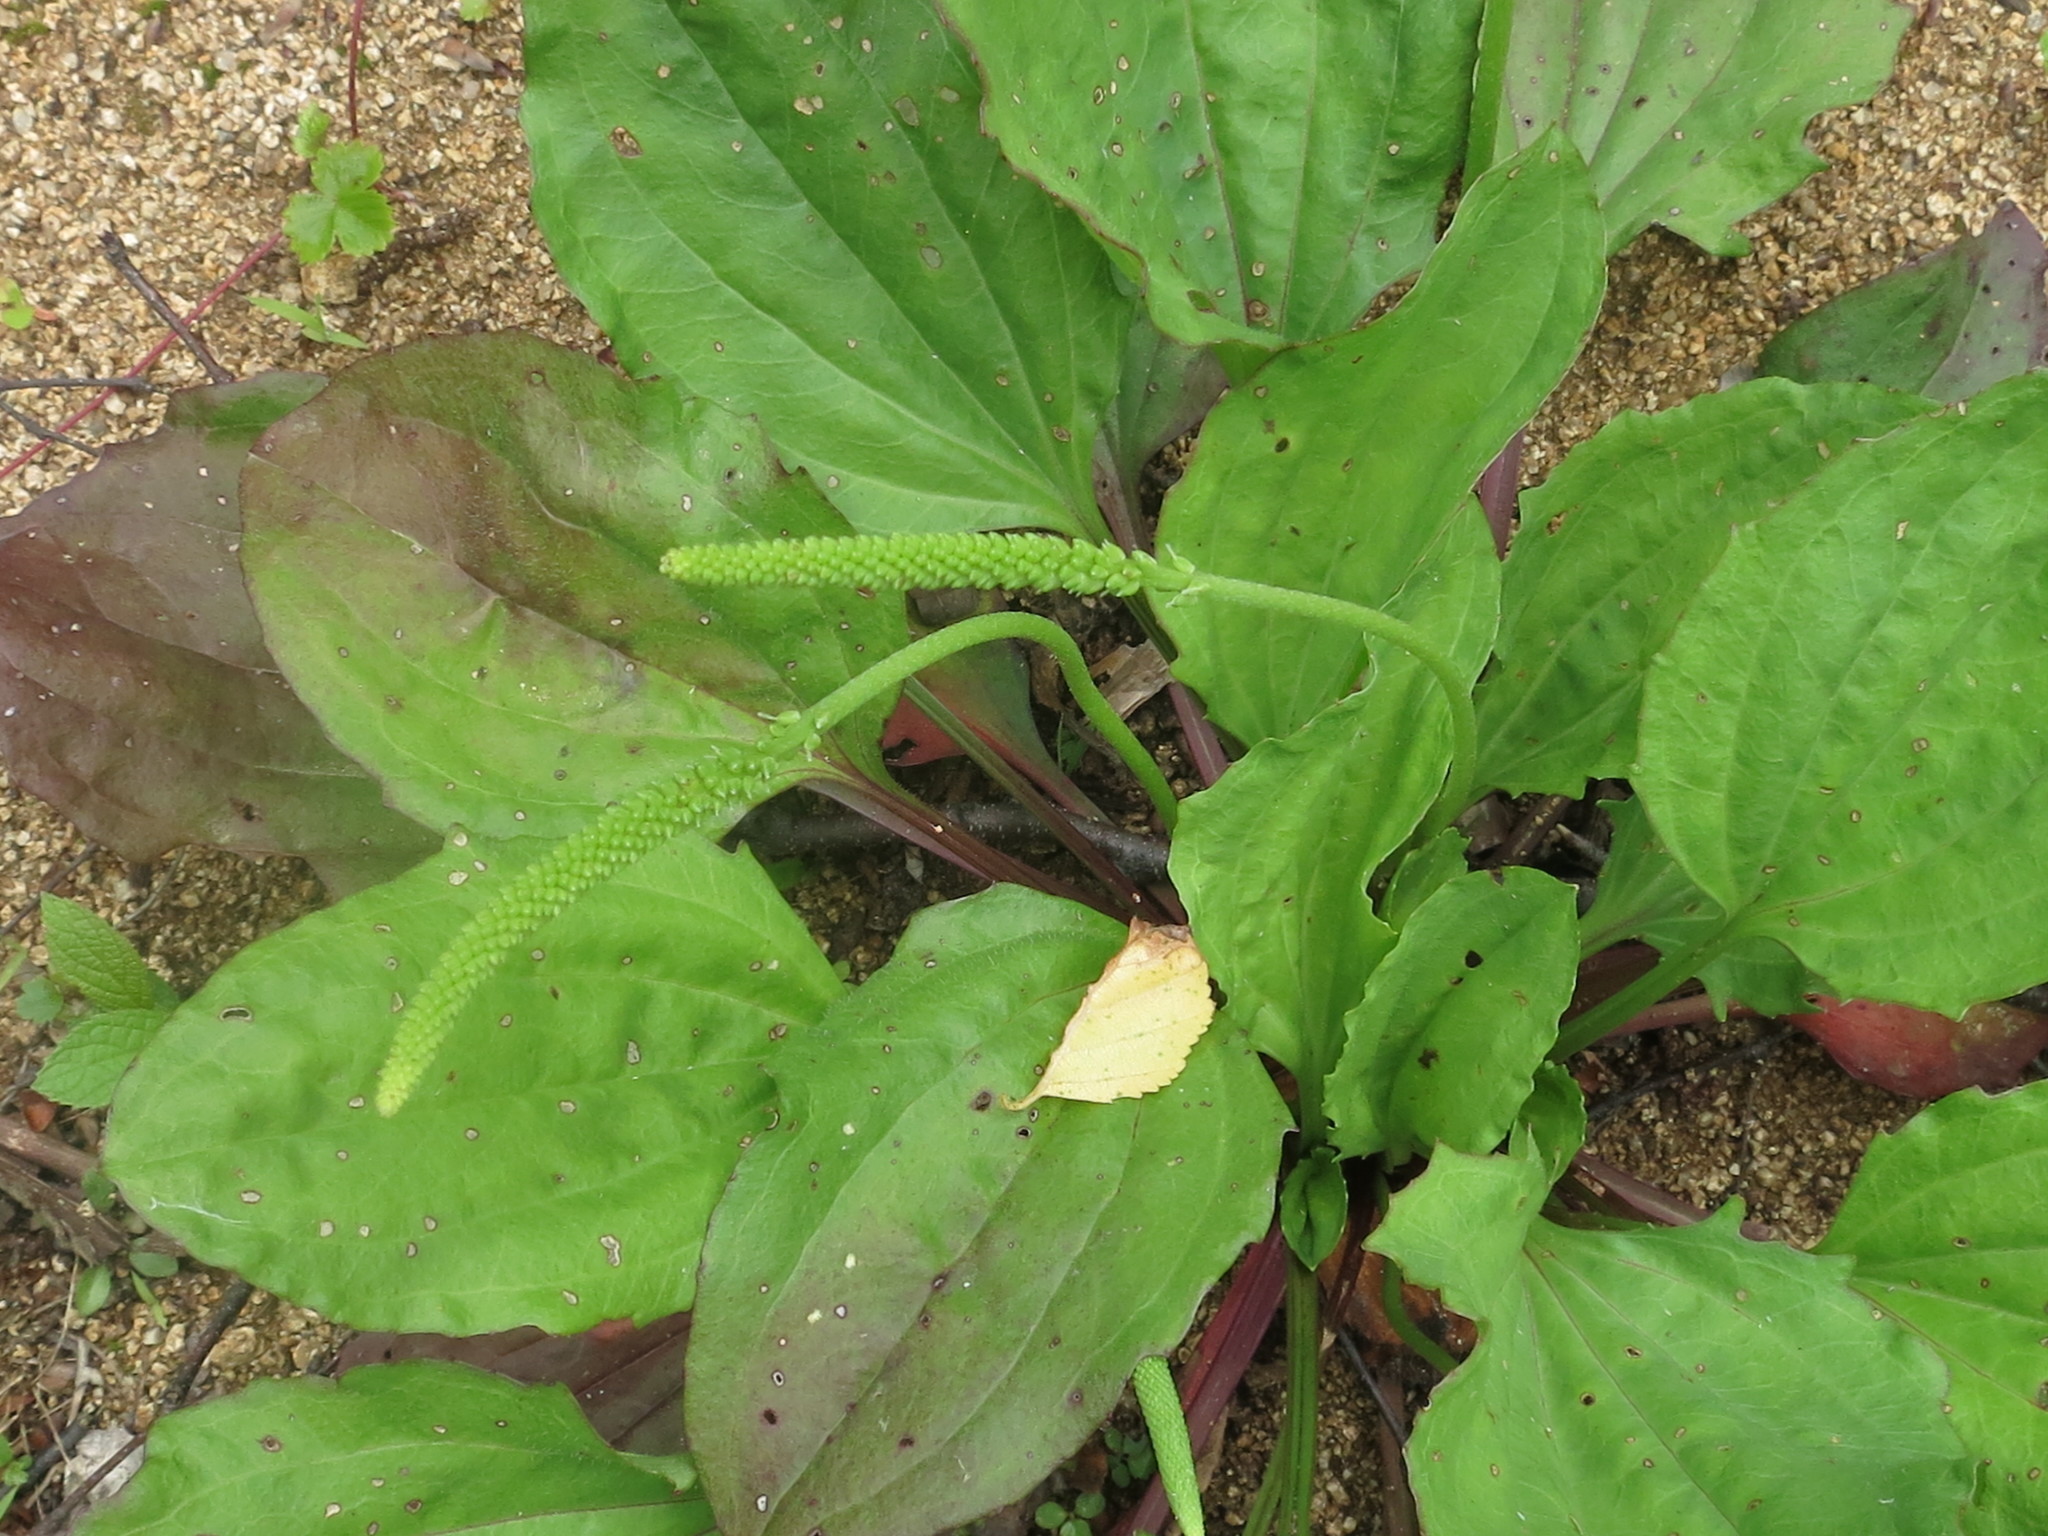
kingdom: Plantae
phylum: Tracheophyta
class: Magnoliopsida
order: Lamiales
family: Plantaginaceae
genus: Plantago
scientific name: Plantago major
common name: Common plantain
